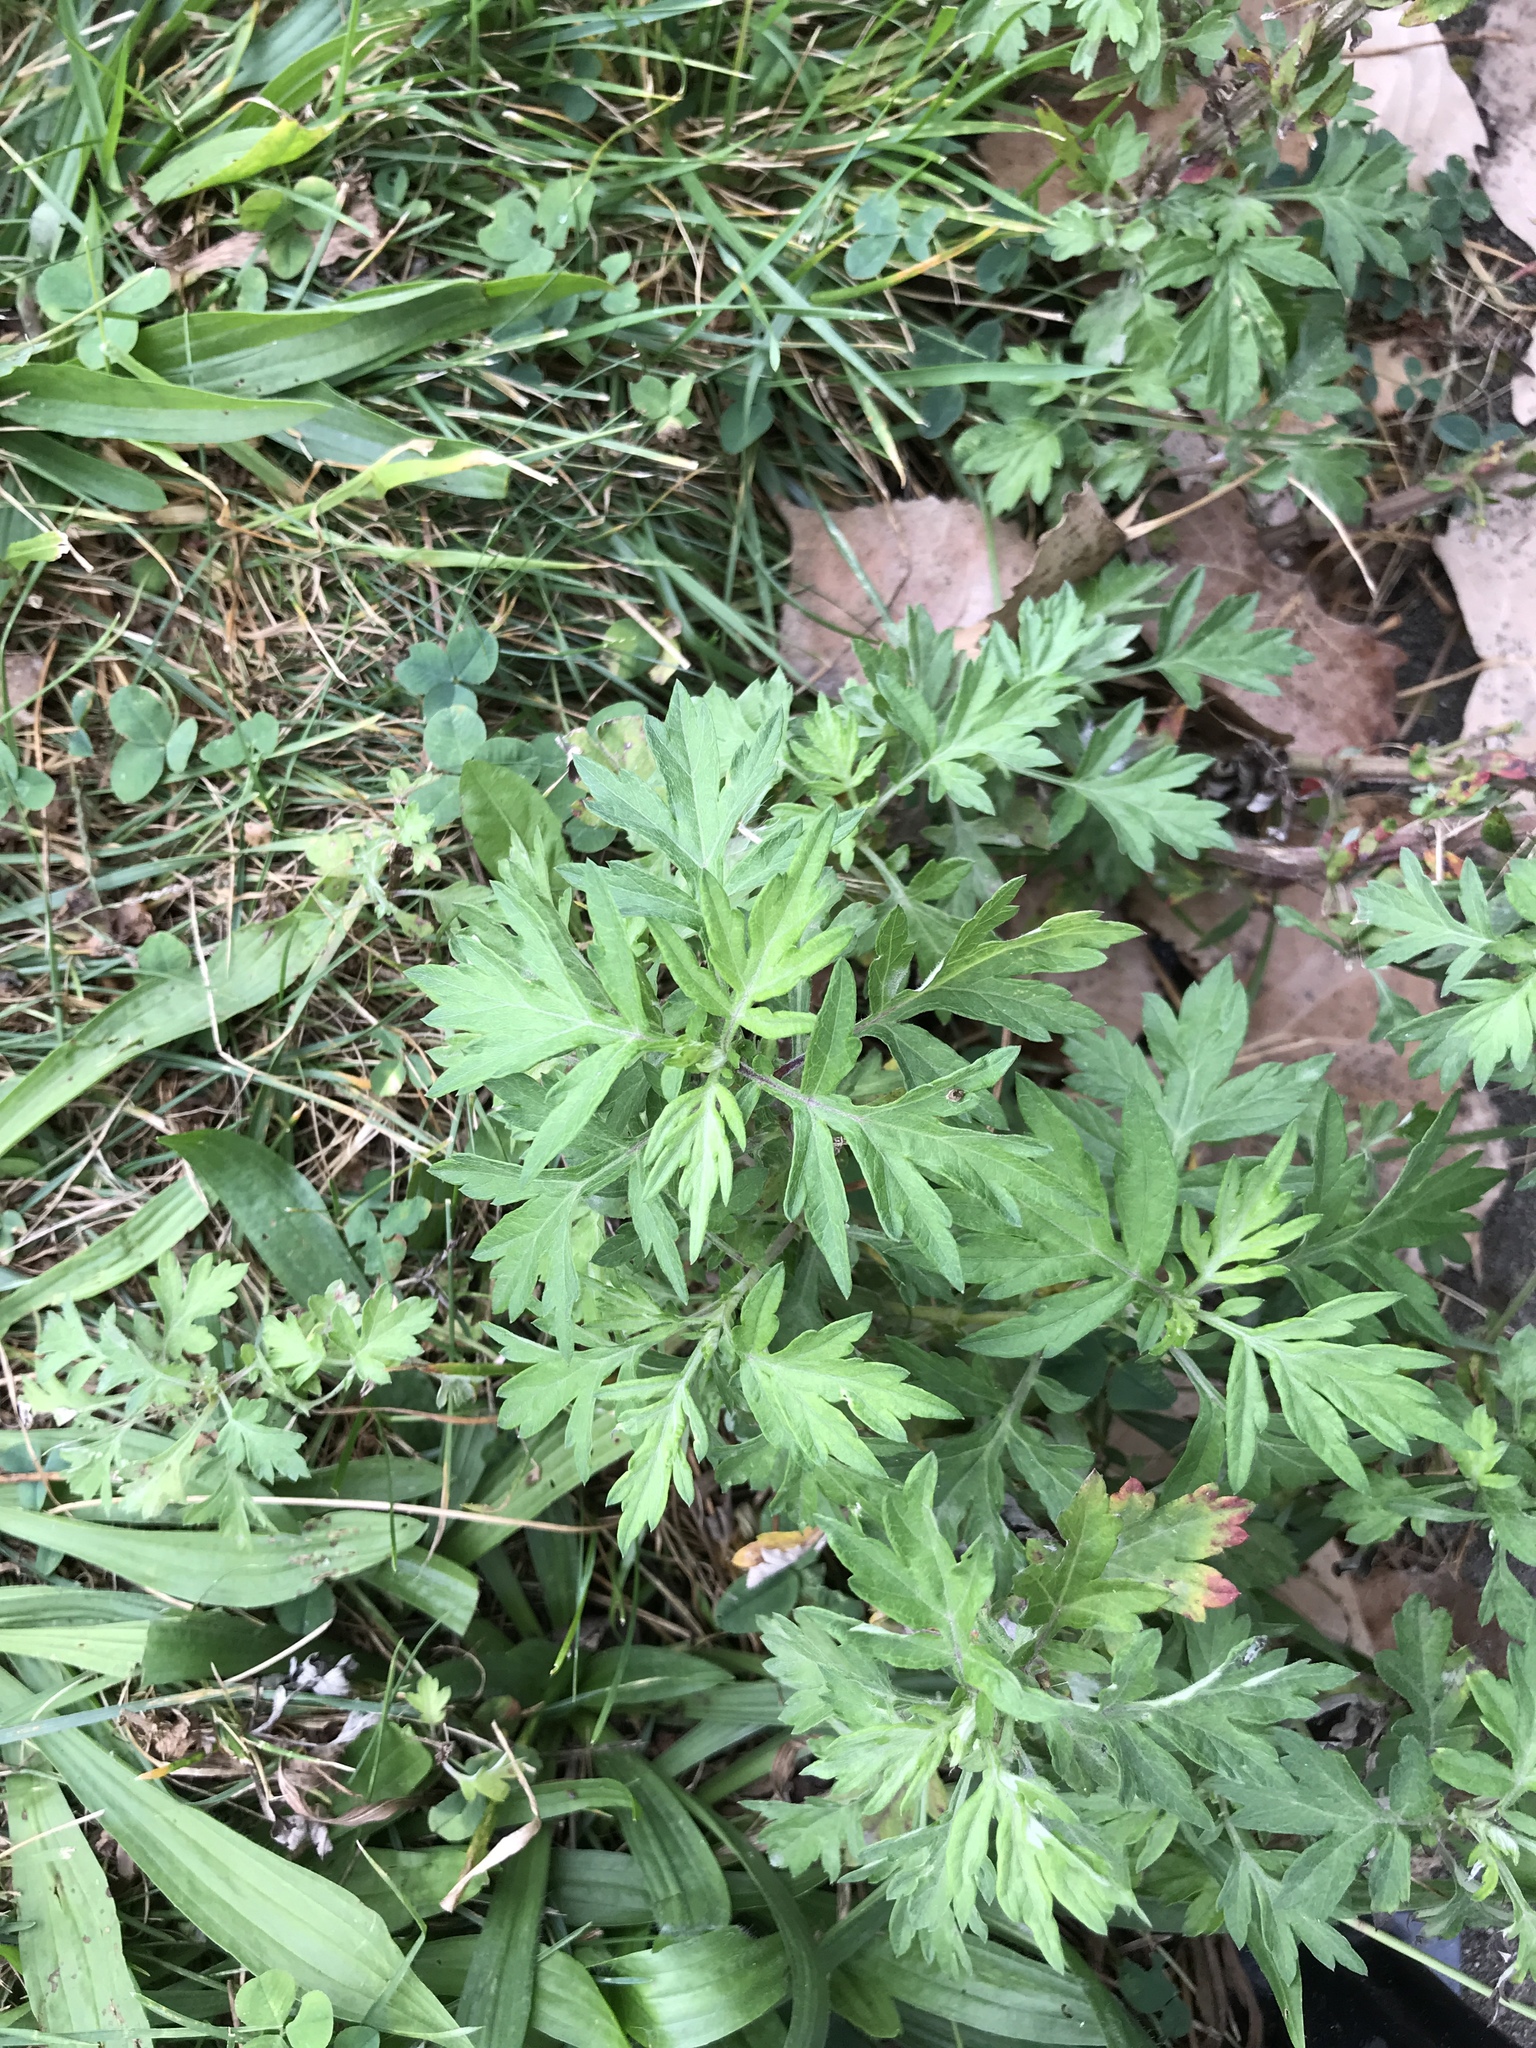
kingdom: Plantae
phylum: Tracheophyta
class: Magnoliopsida
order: Asterales
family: Asteraceae
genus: Artemisia
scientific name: Artemisia vulgaris
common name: Mugwort
